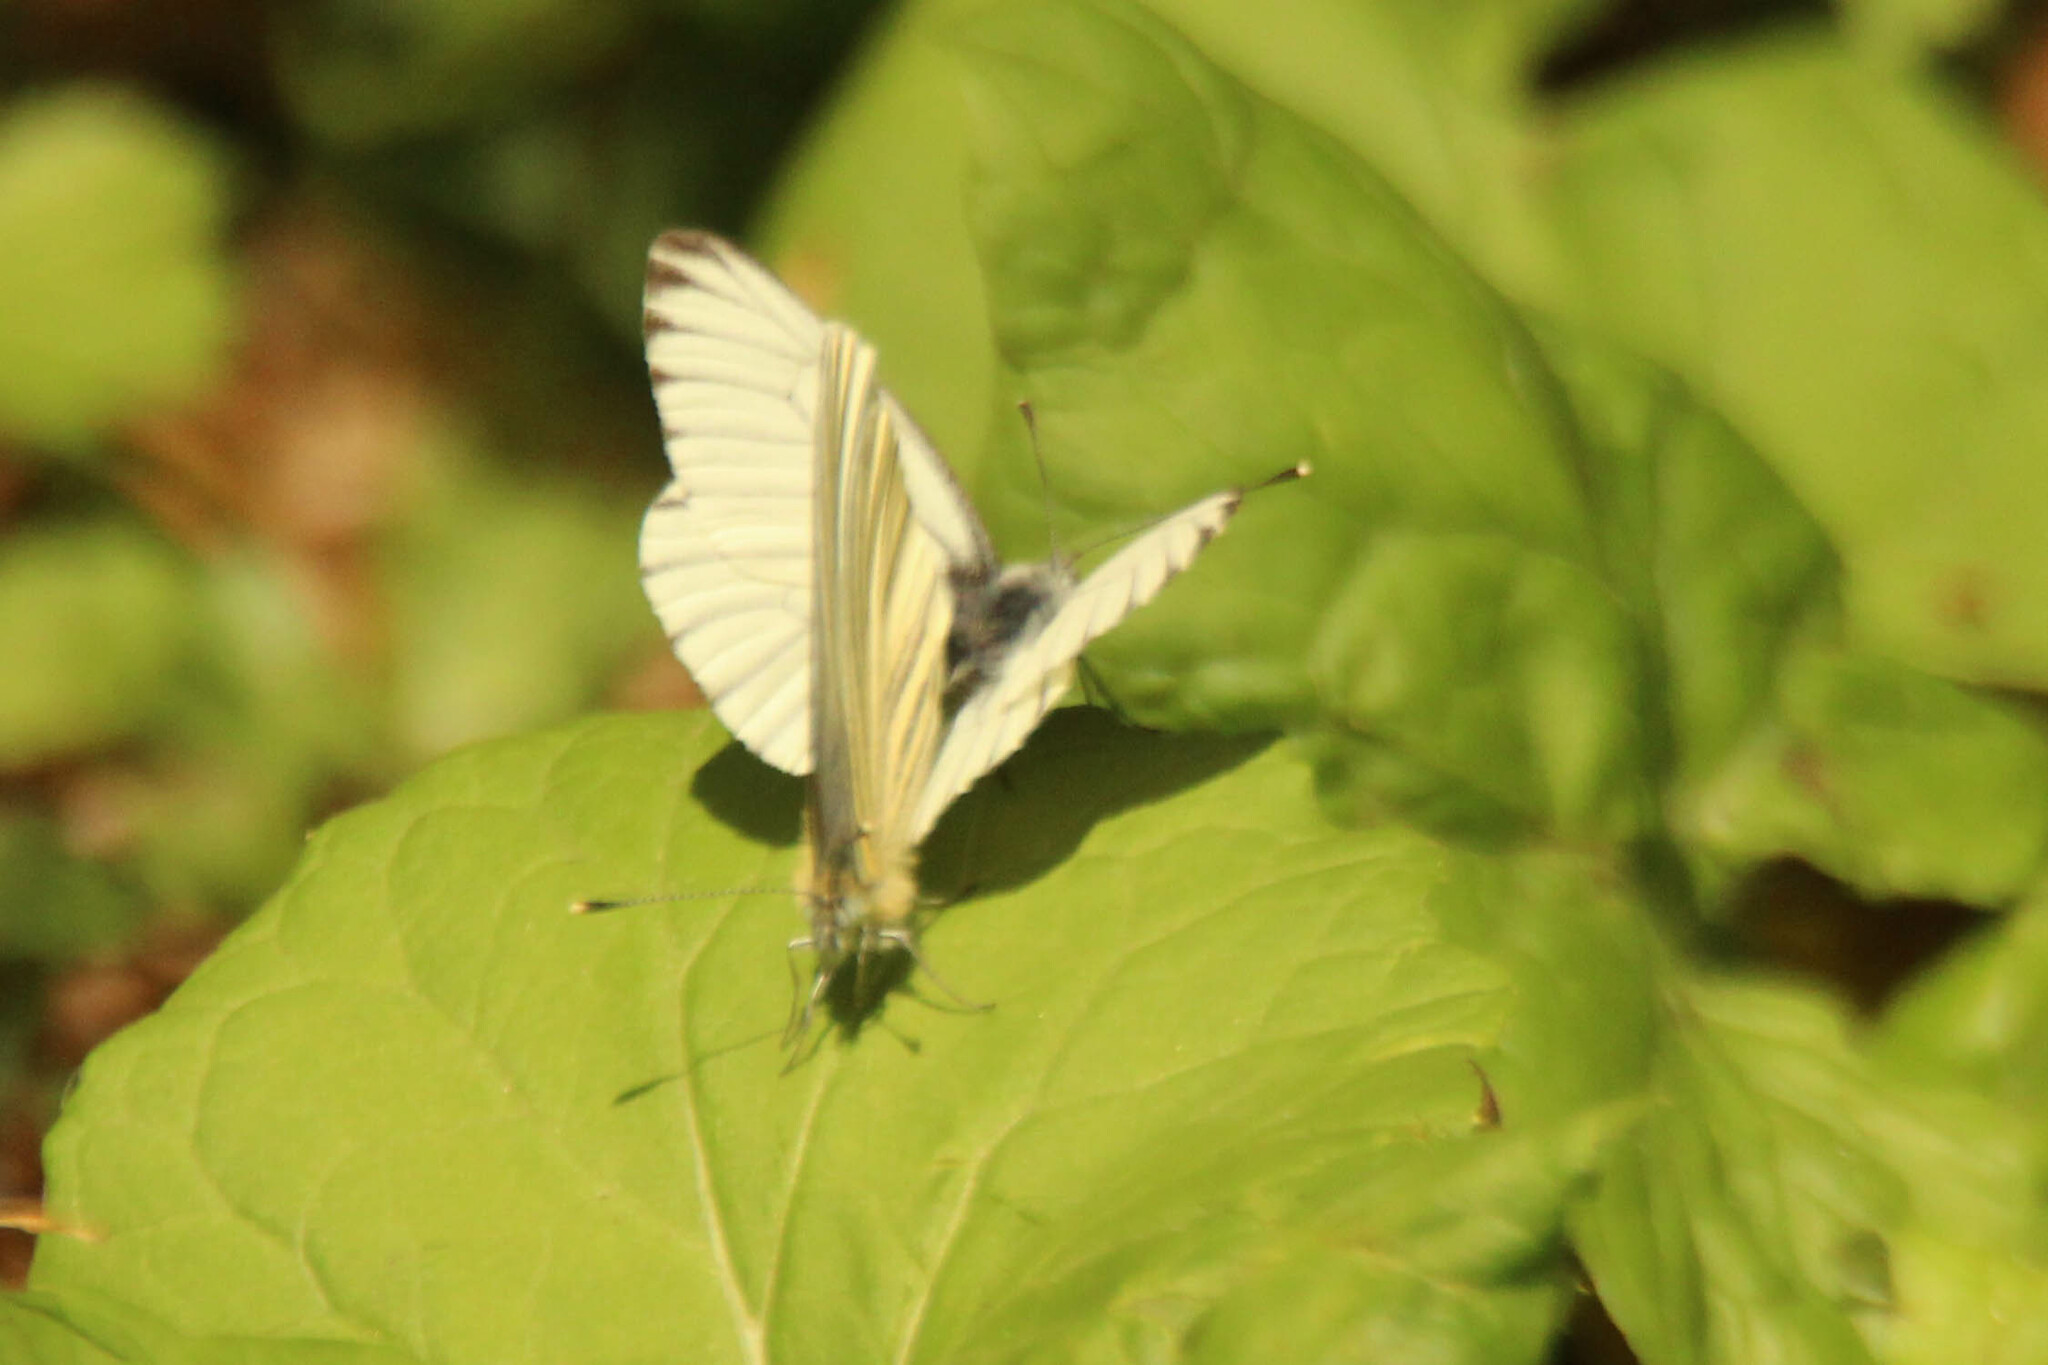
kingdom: Animalia
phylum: Arthropoda
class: Insecta
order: Lepidoptera
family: Pieridae
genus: Pieris
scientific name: Pieris dulcinea
